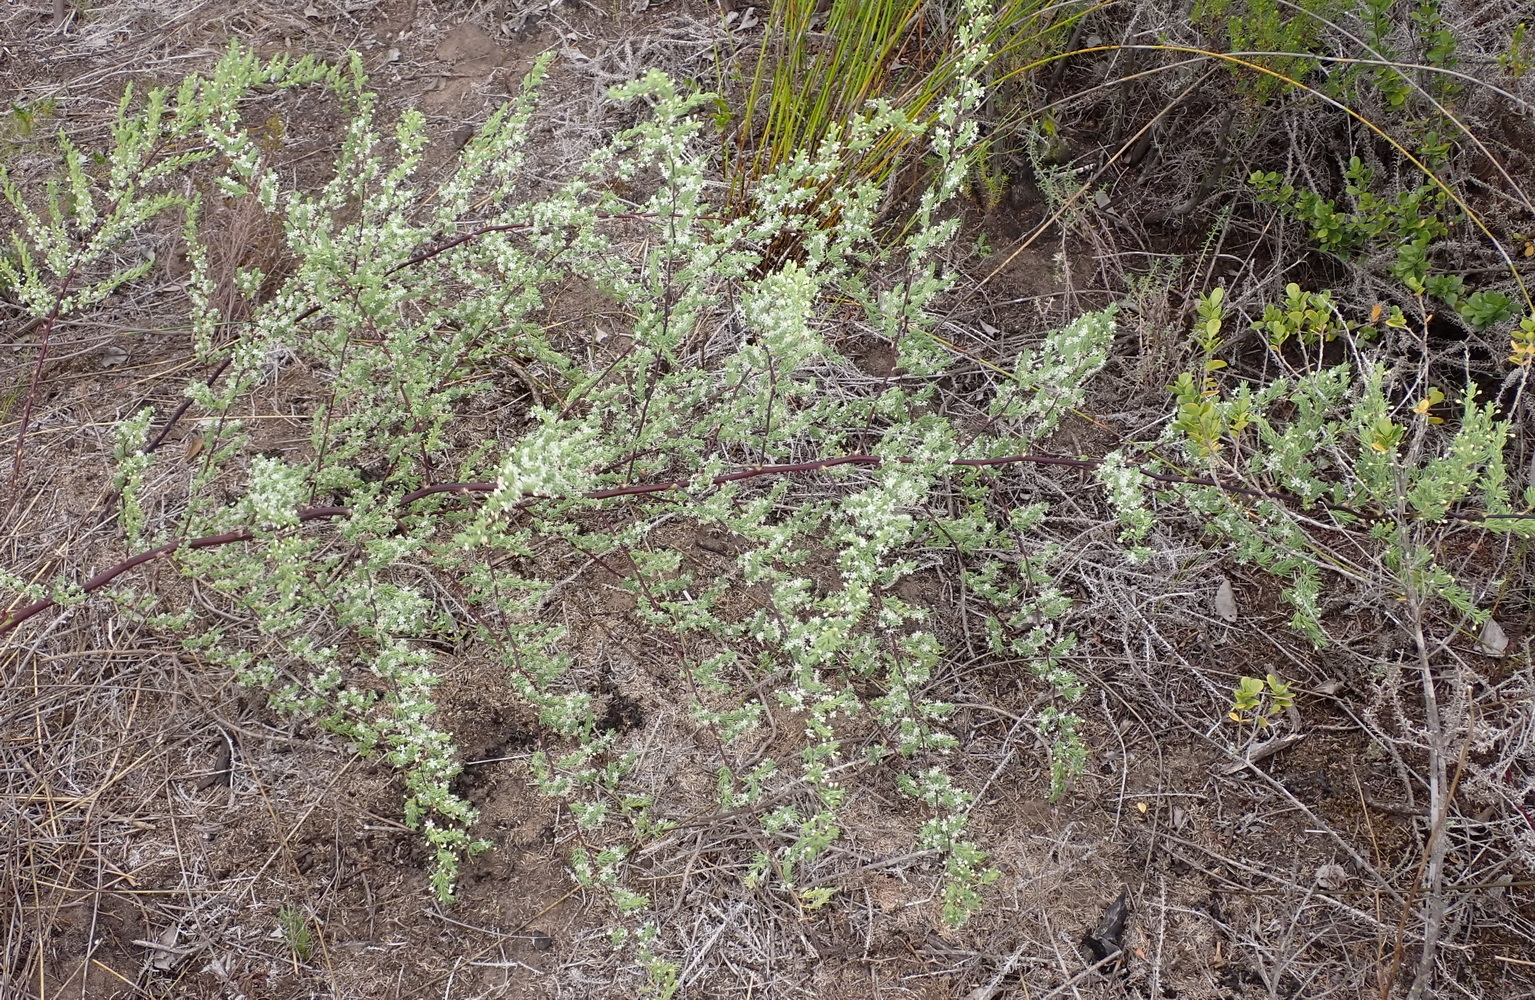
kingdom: Plantae
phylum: Tracheophyta
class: Liliopsida
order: Asparagales
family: Asparagaceae
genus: Asparagus
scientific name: Asparagus rubicundus
